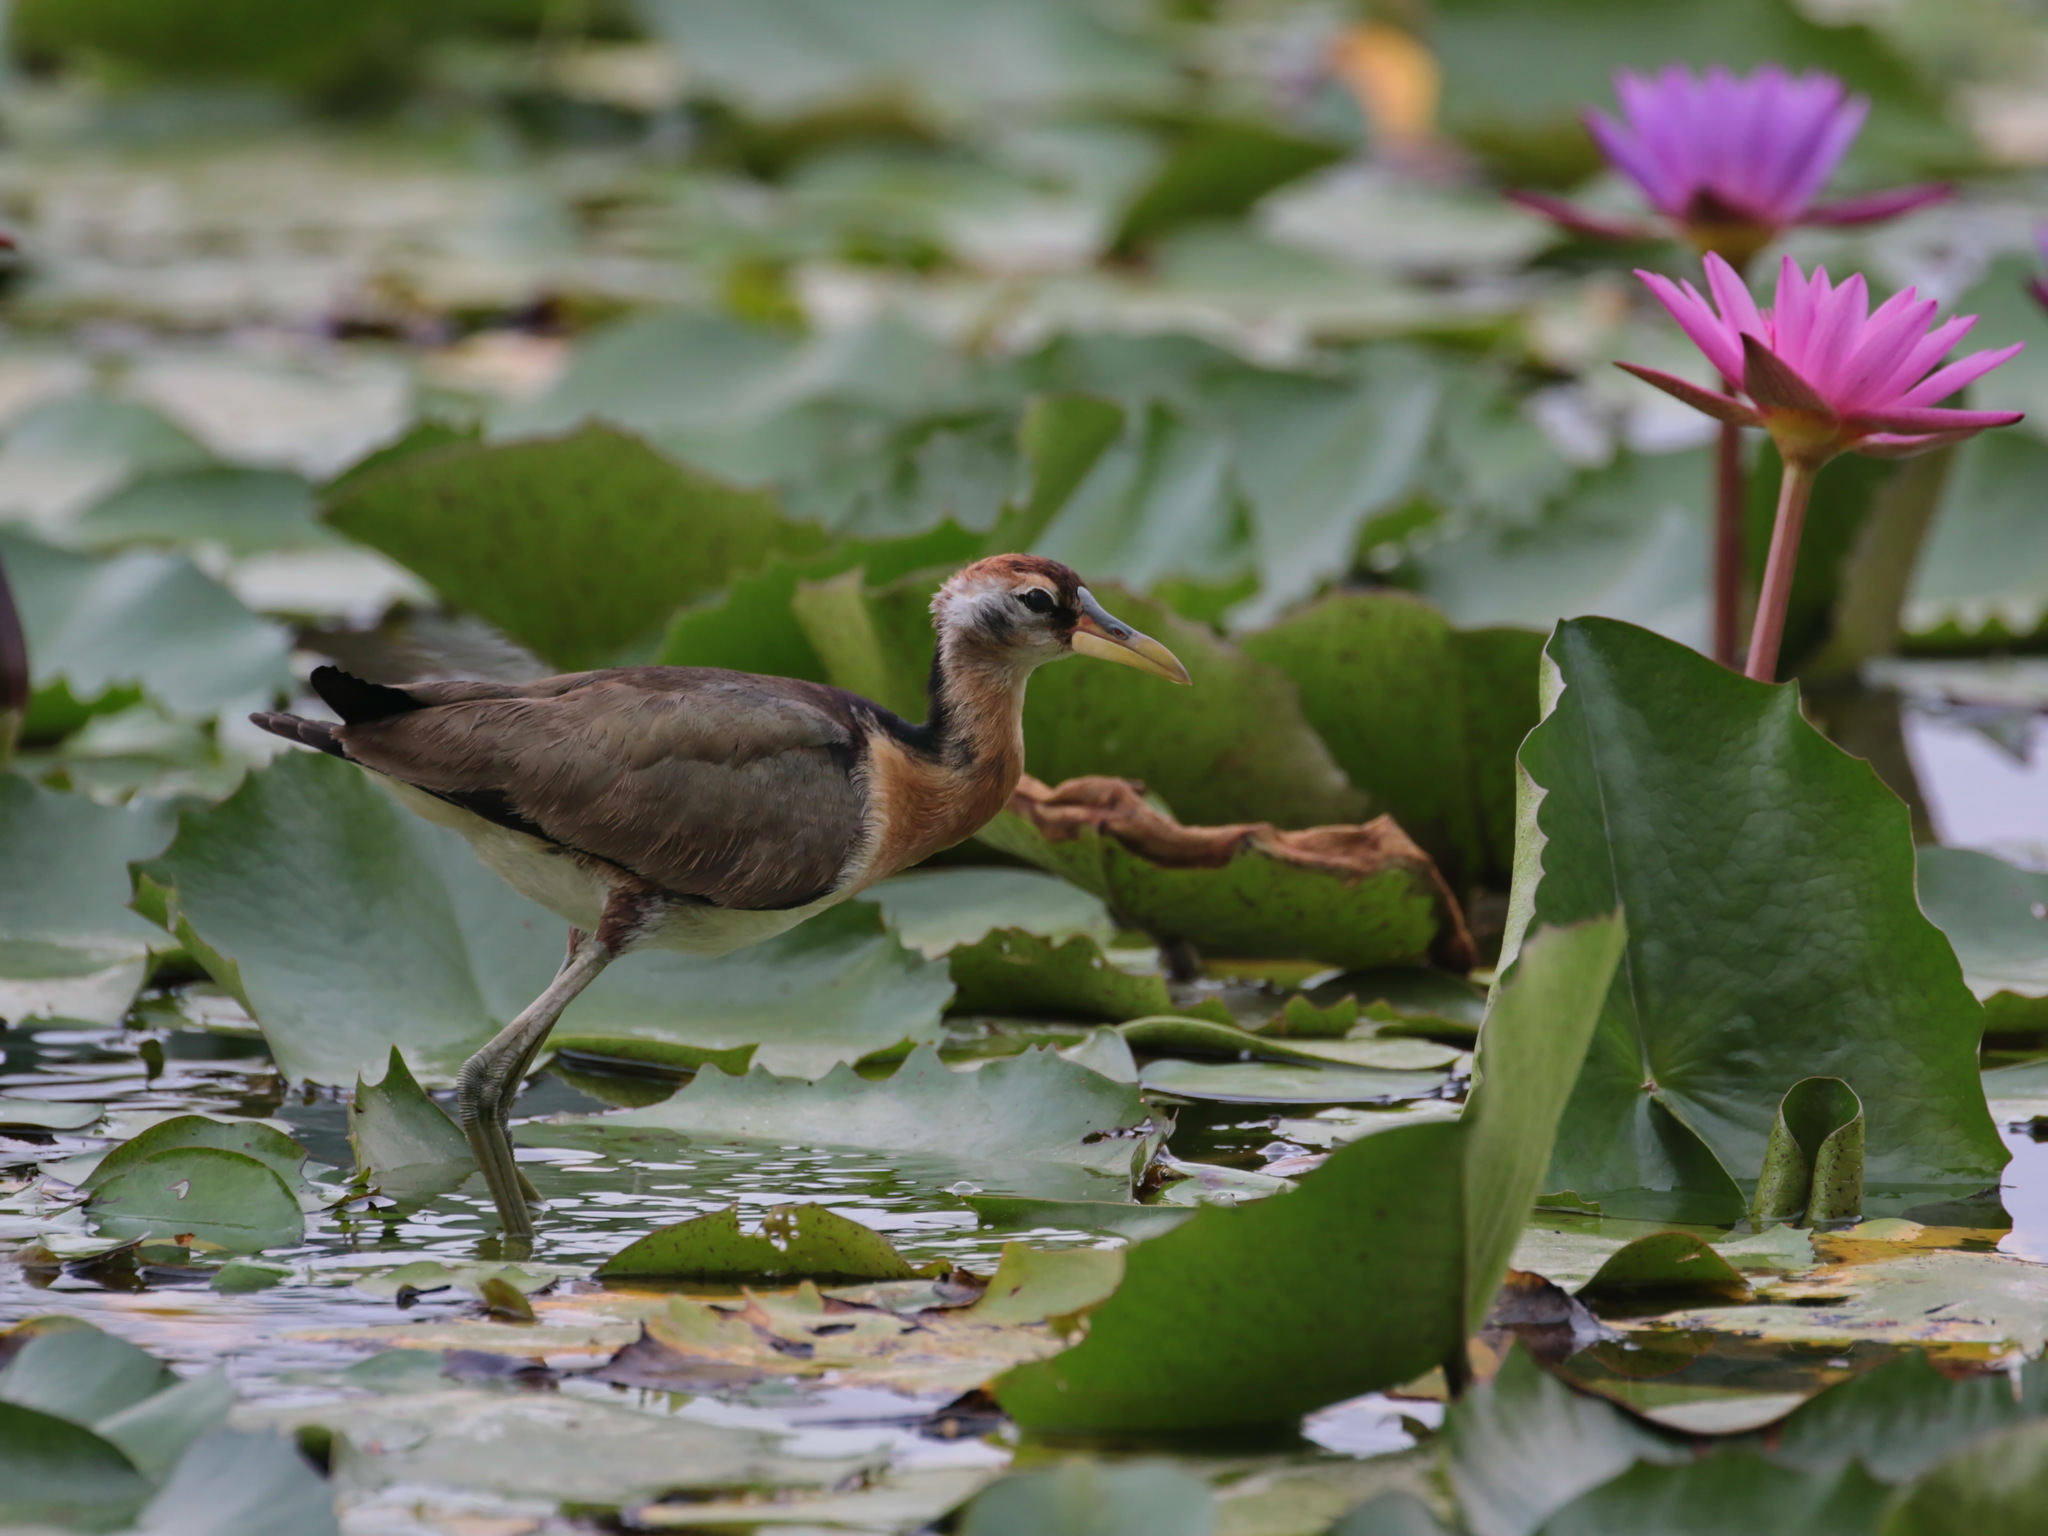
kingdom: Animalia
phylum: Chordata
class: Aves
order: Charadriiformes
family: Jacanidae
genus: Metopidius
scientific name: Metopidius indicus
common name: Bronze-winged jacana
